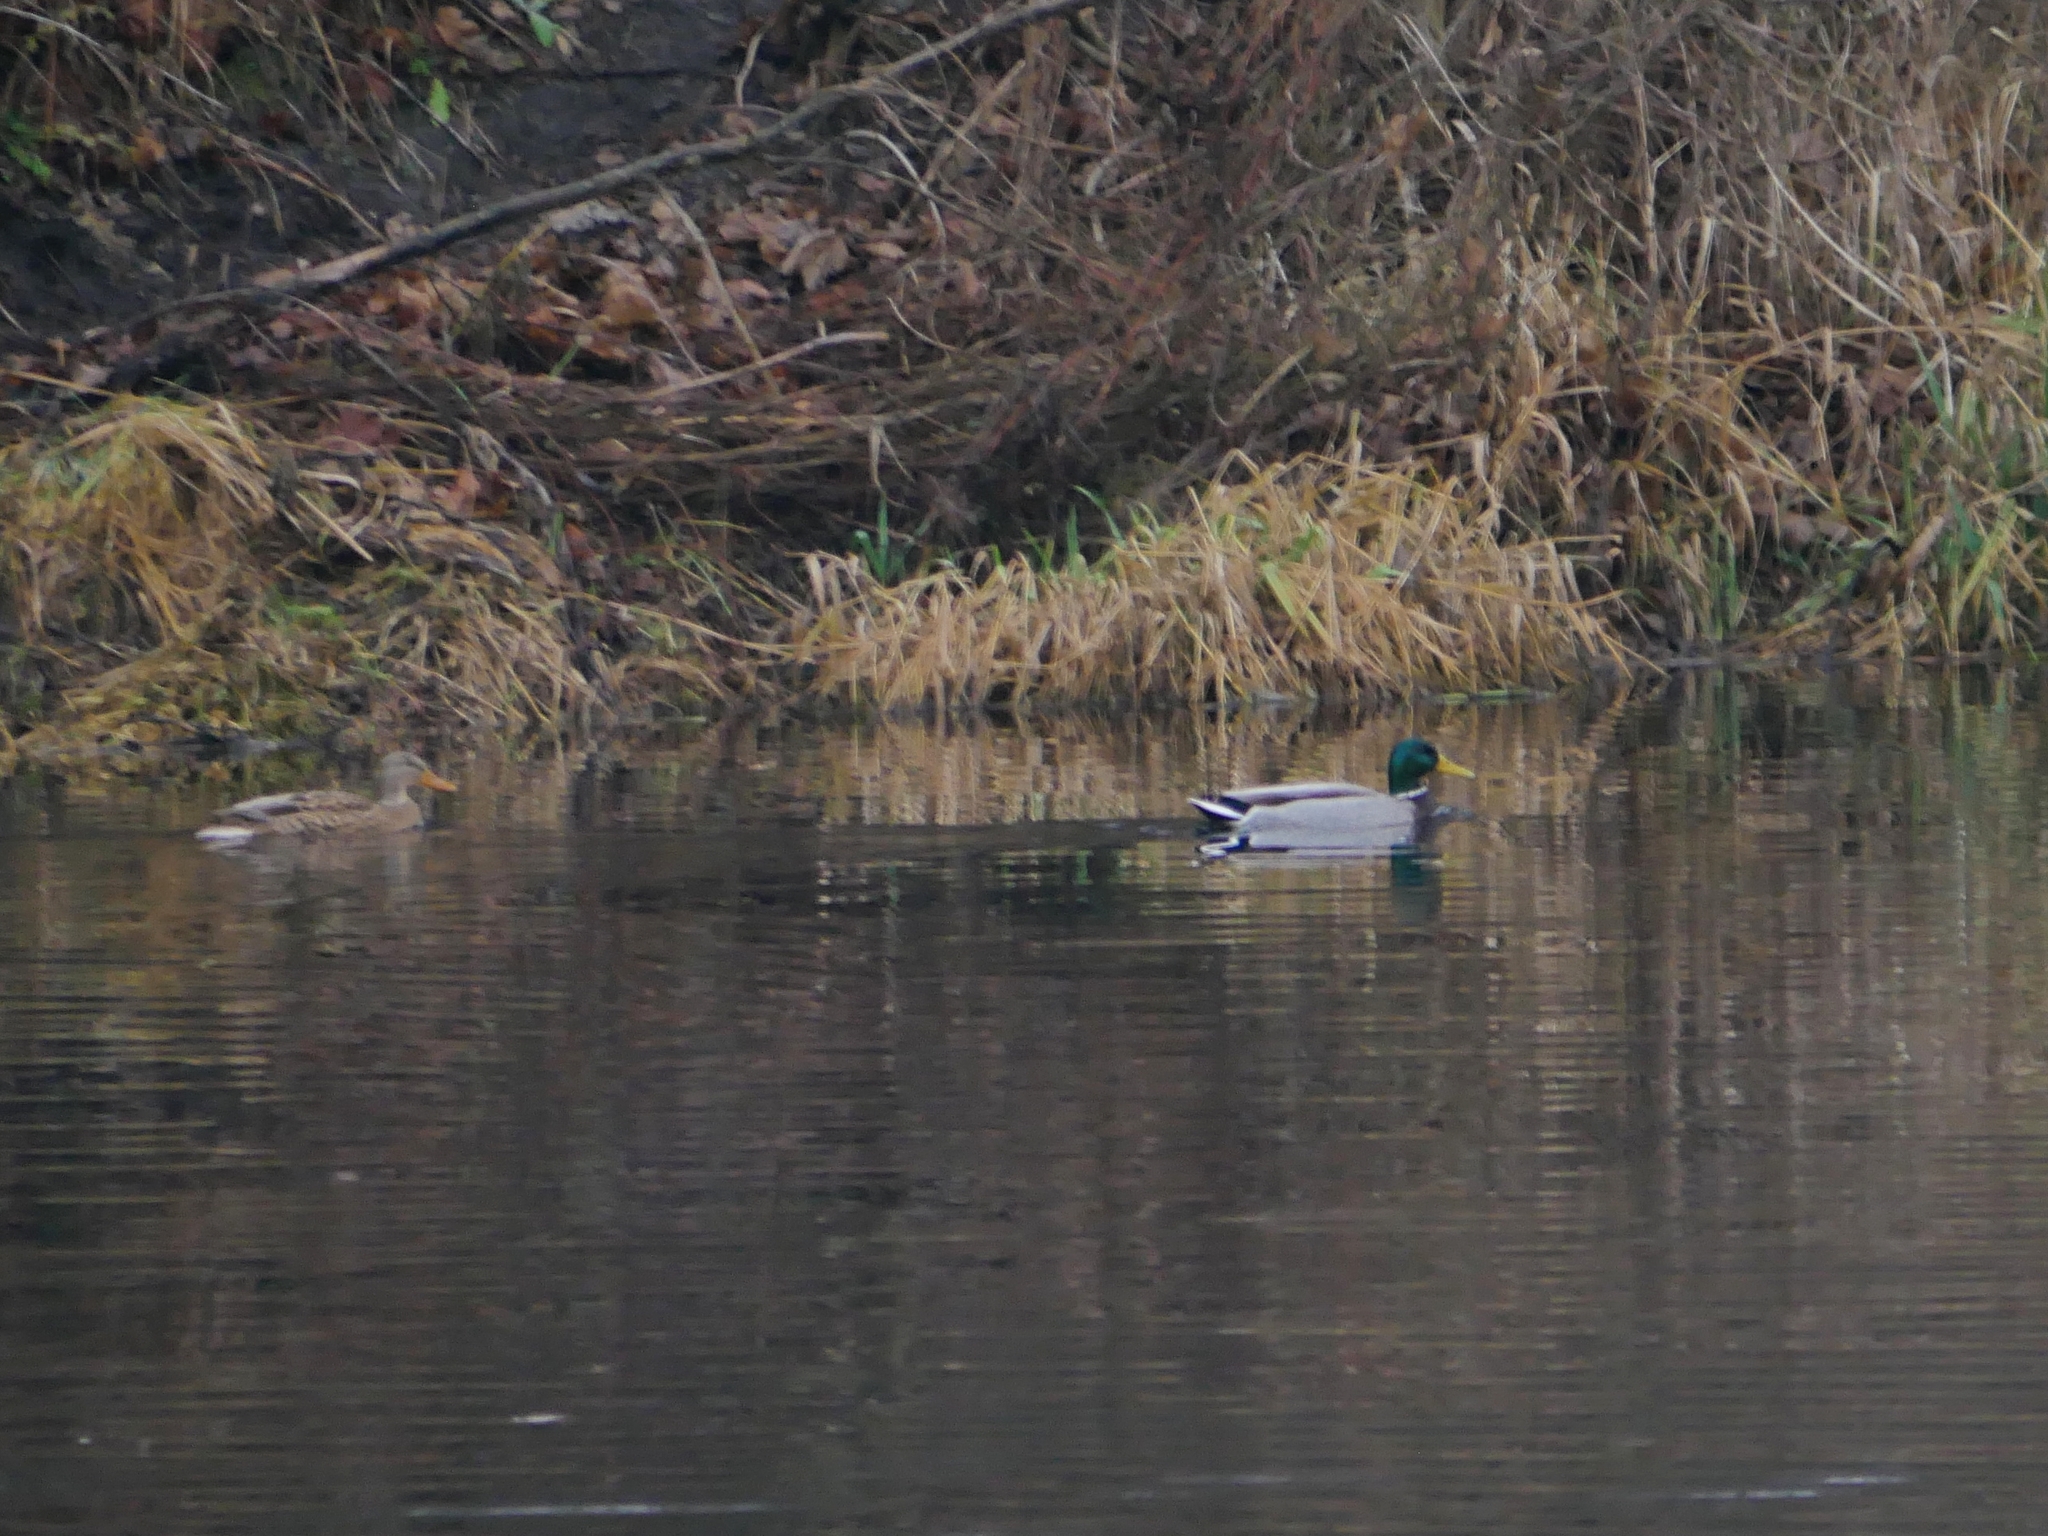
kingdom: Animalia
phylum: Chordata
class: Aves
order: Anseriformes
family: Anatidae
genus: Anas
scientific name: Anas platyrhynchos
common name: Mallard
